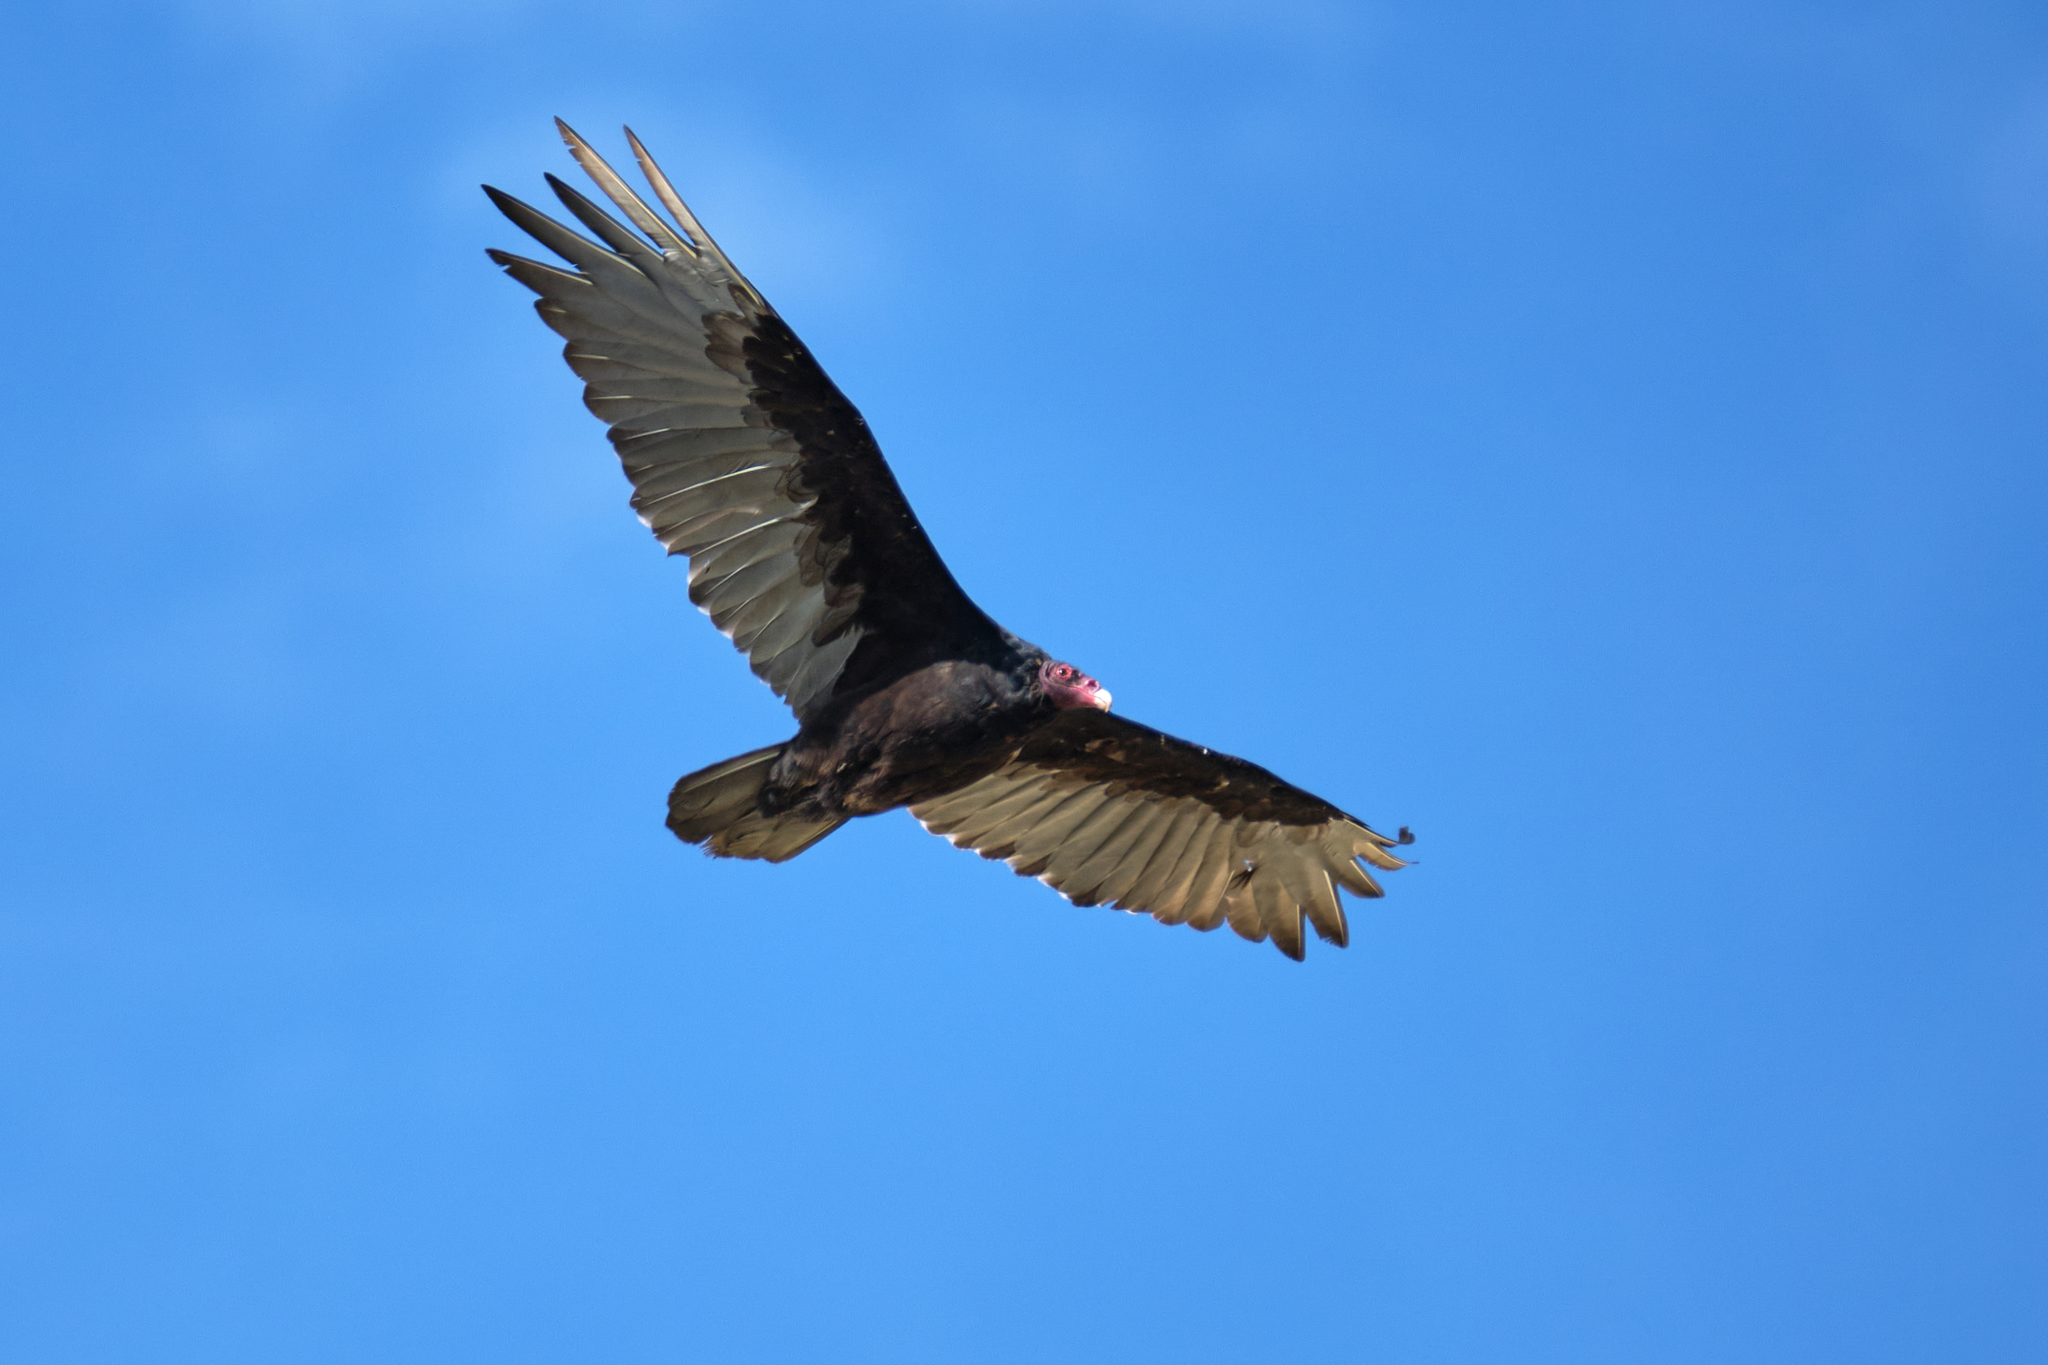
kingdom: Animalia
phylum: Chordata
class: Aves
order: Accipitriformes
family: Cathartidae
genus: Cathartes
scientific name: Cathartes aura
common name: Turkey vulture
